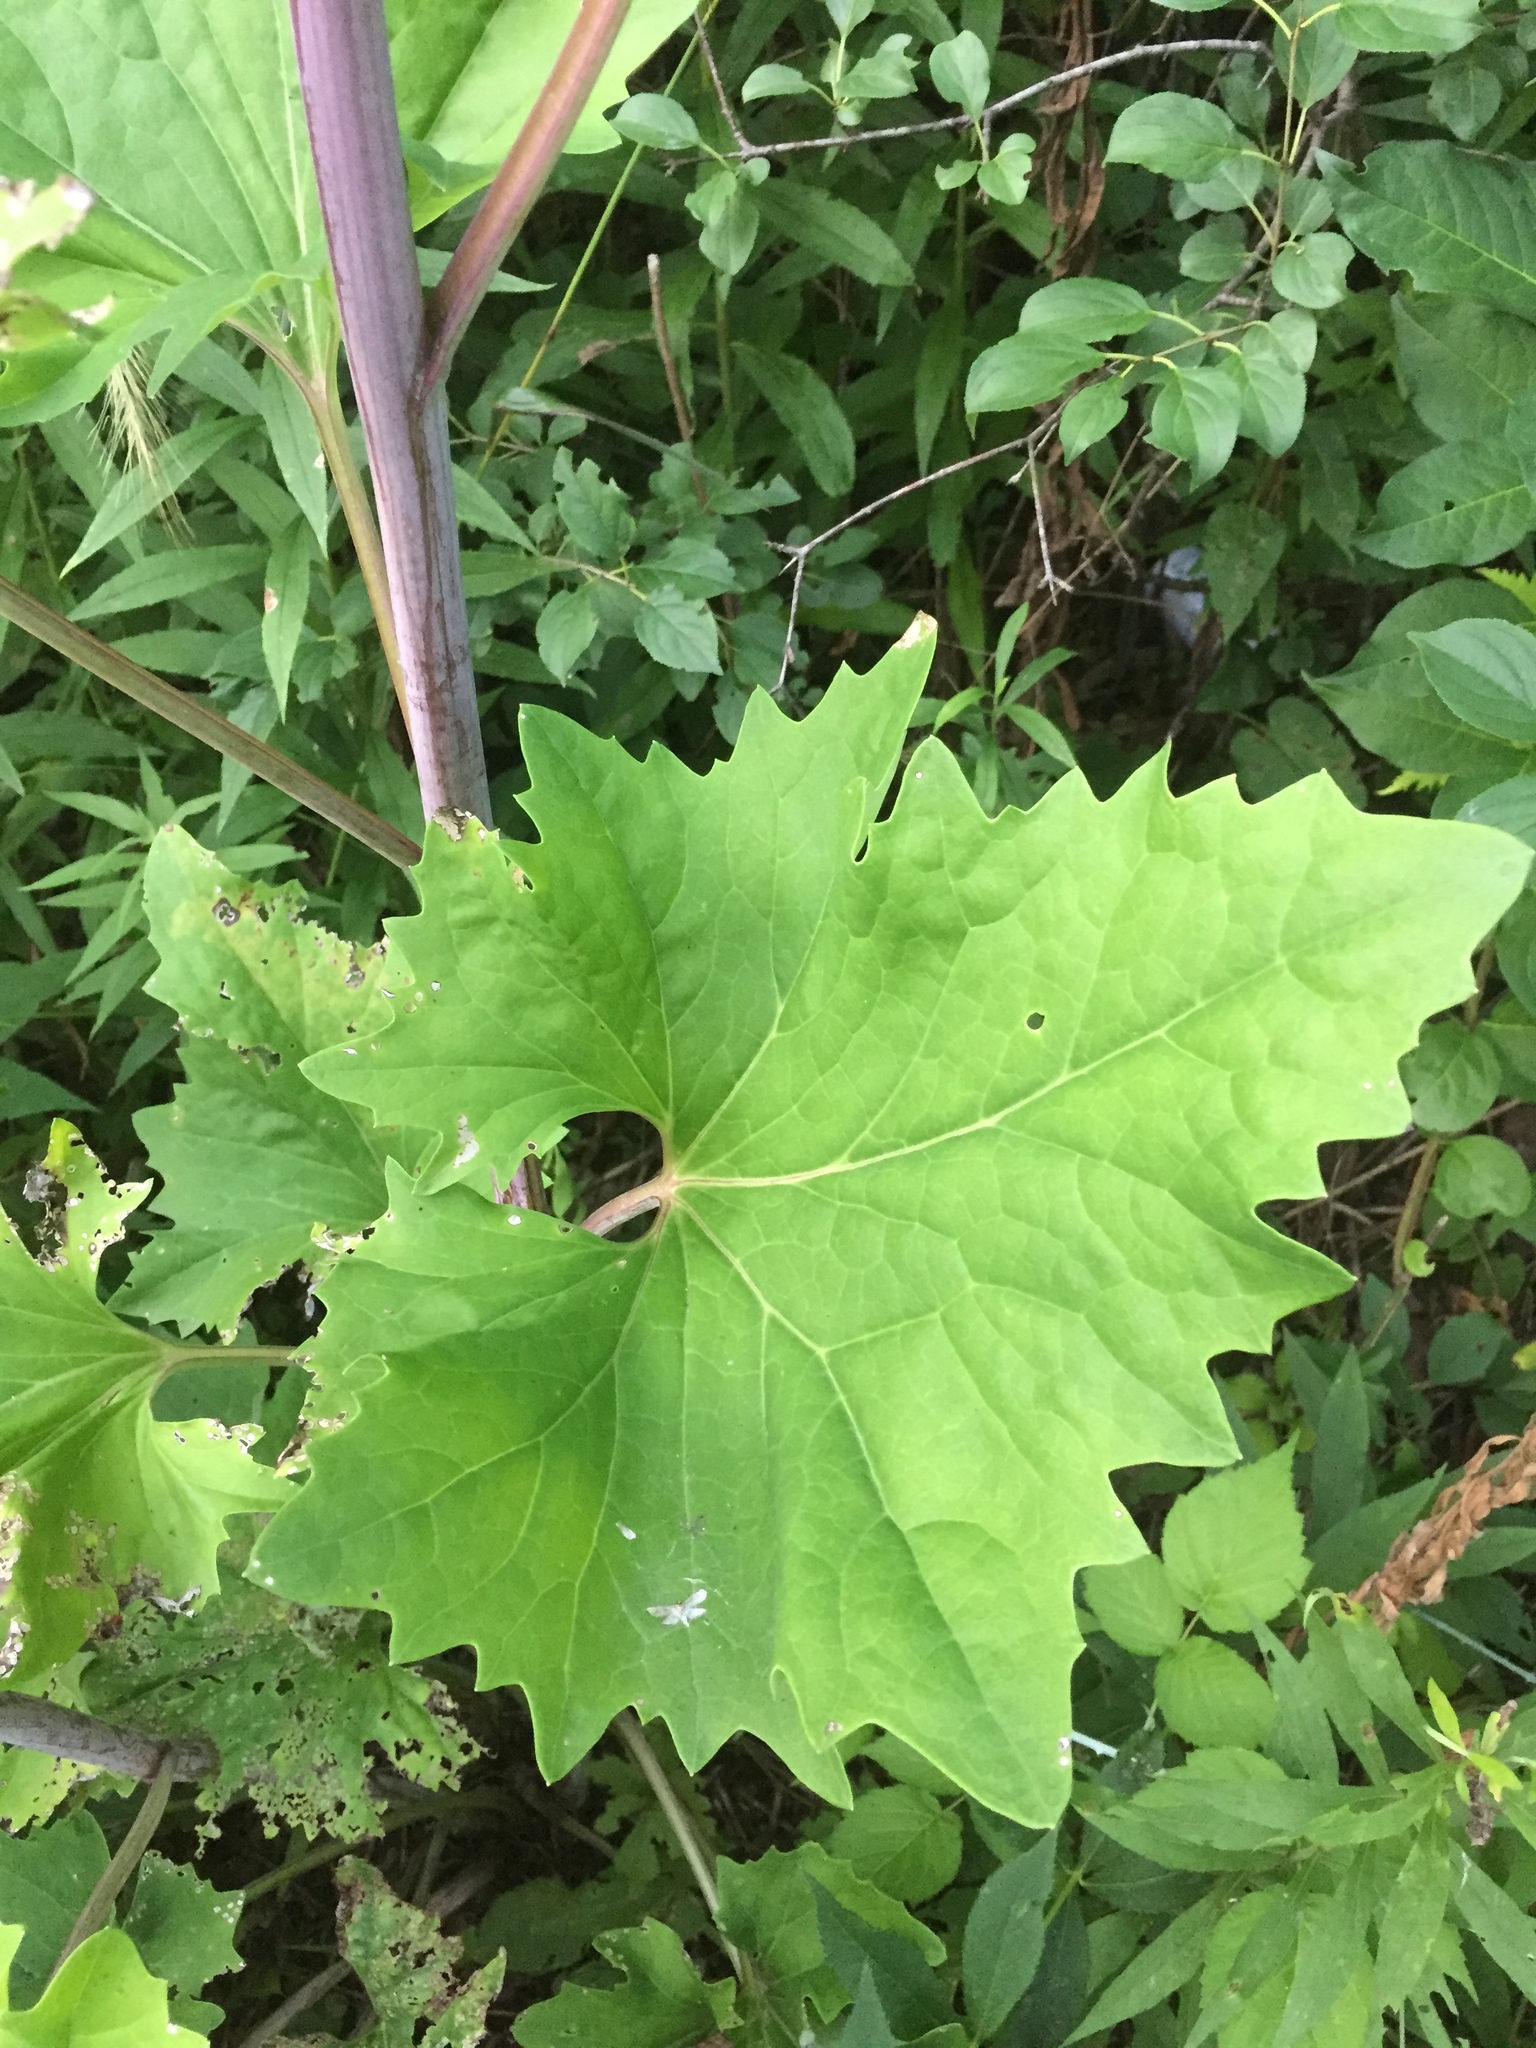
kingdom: Plantae
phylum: Tracheophyta
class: Magnoliopsida
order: Asterales
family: Asteraceae
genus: Arnoglossum
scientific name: Arnoglossum atriplicifolium
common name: Pale indian-plantain
